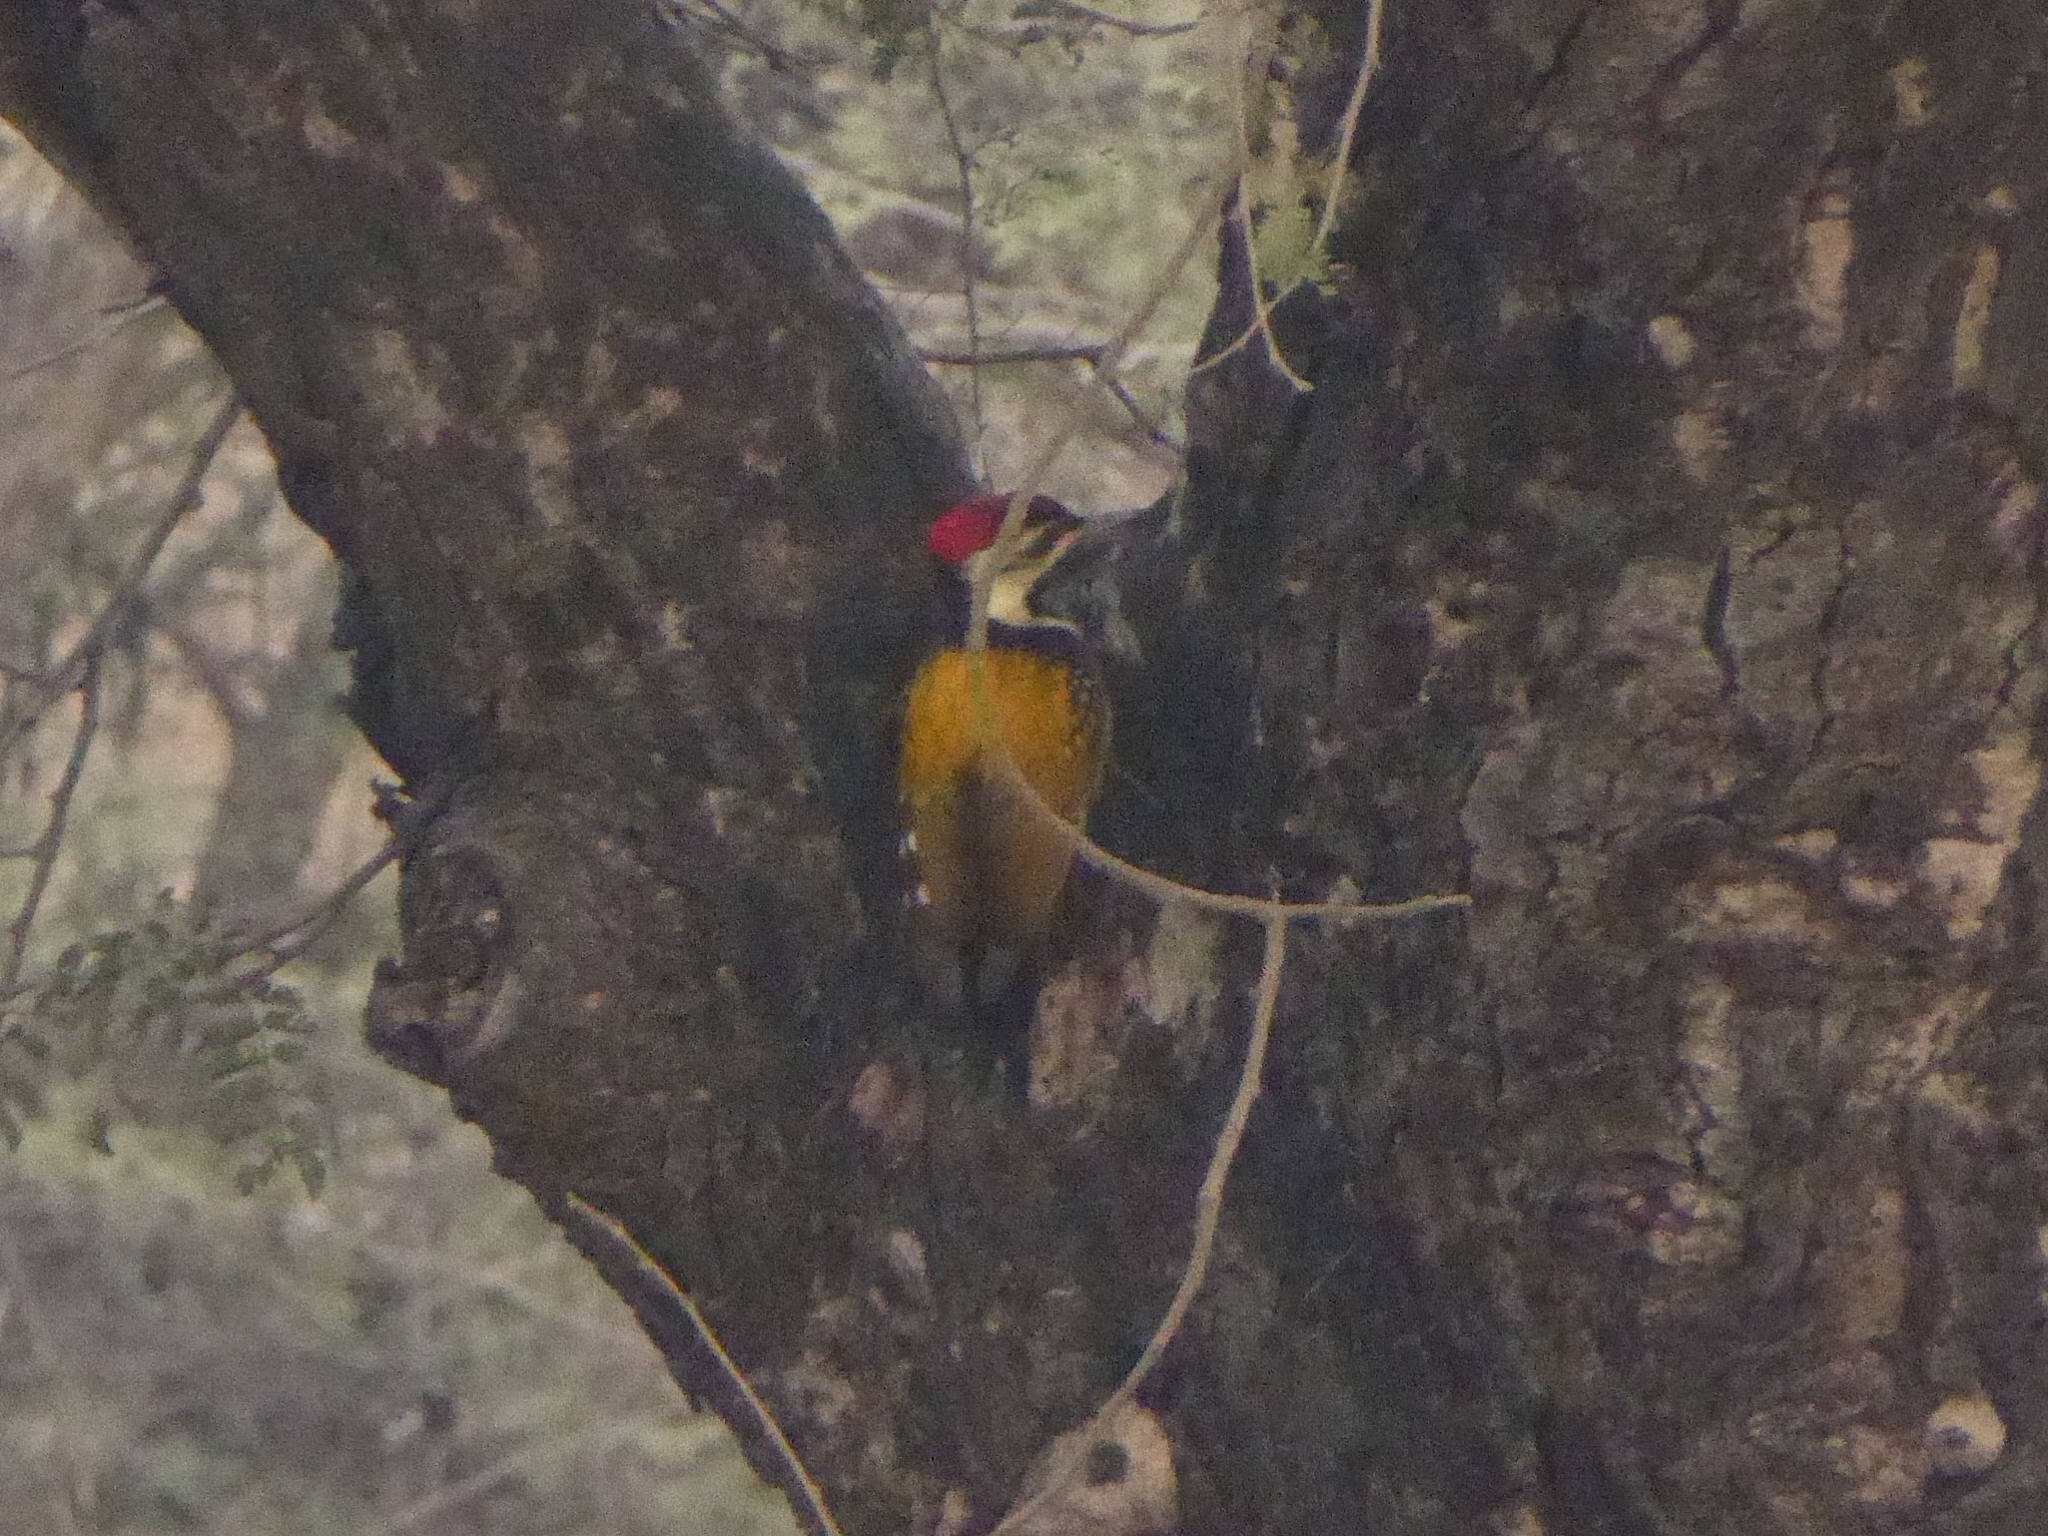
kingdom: Animalia
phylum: Chordata
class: Aves
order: Piciformes
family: Picidae
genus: Dinopium
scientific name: Dinopium benghalense
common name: Black-rumped flameback
